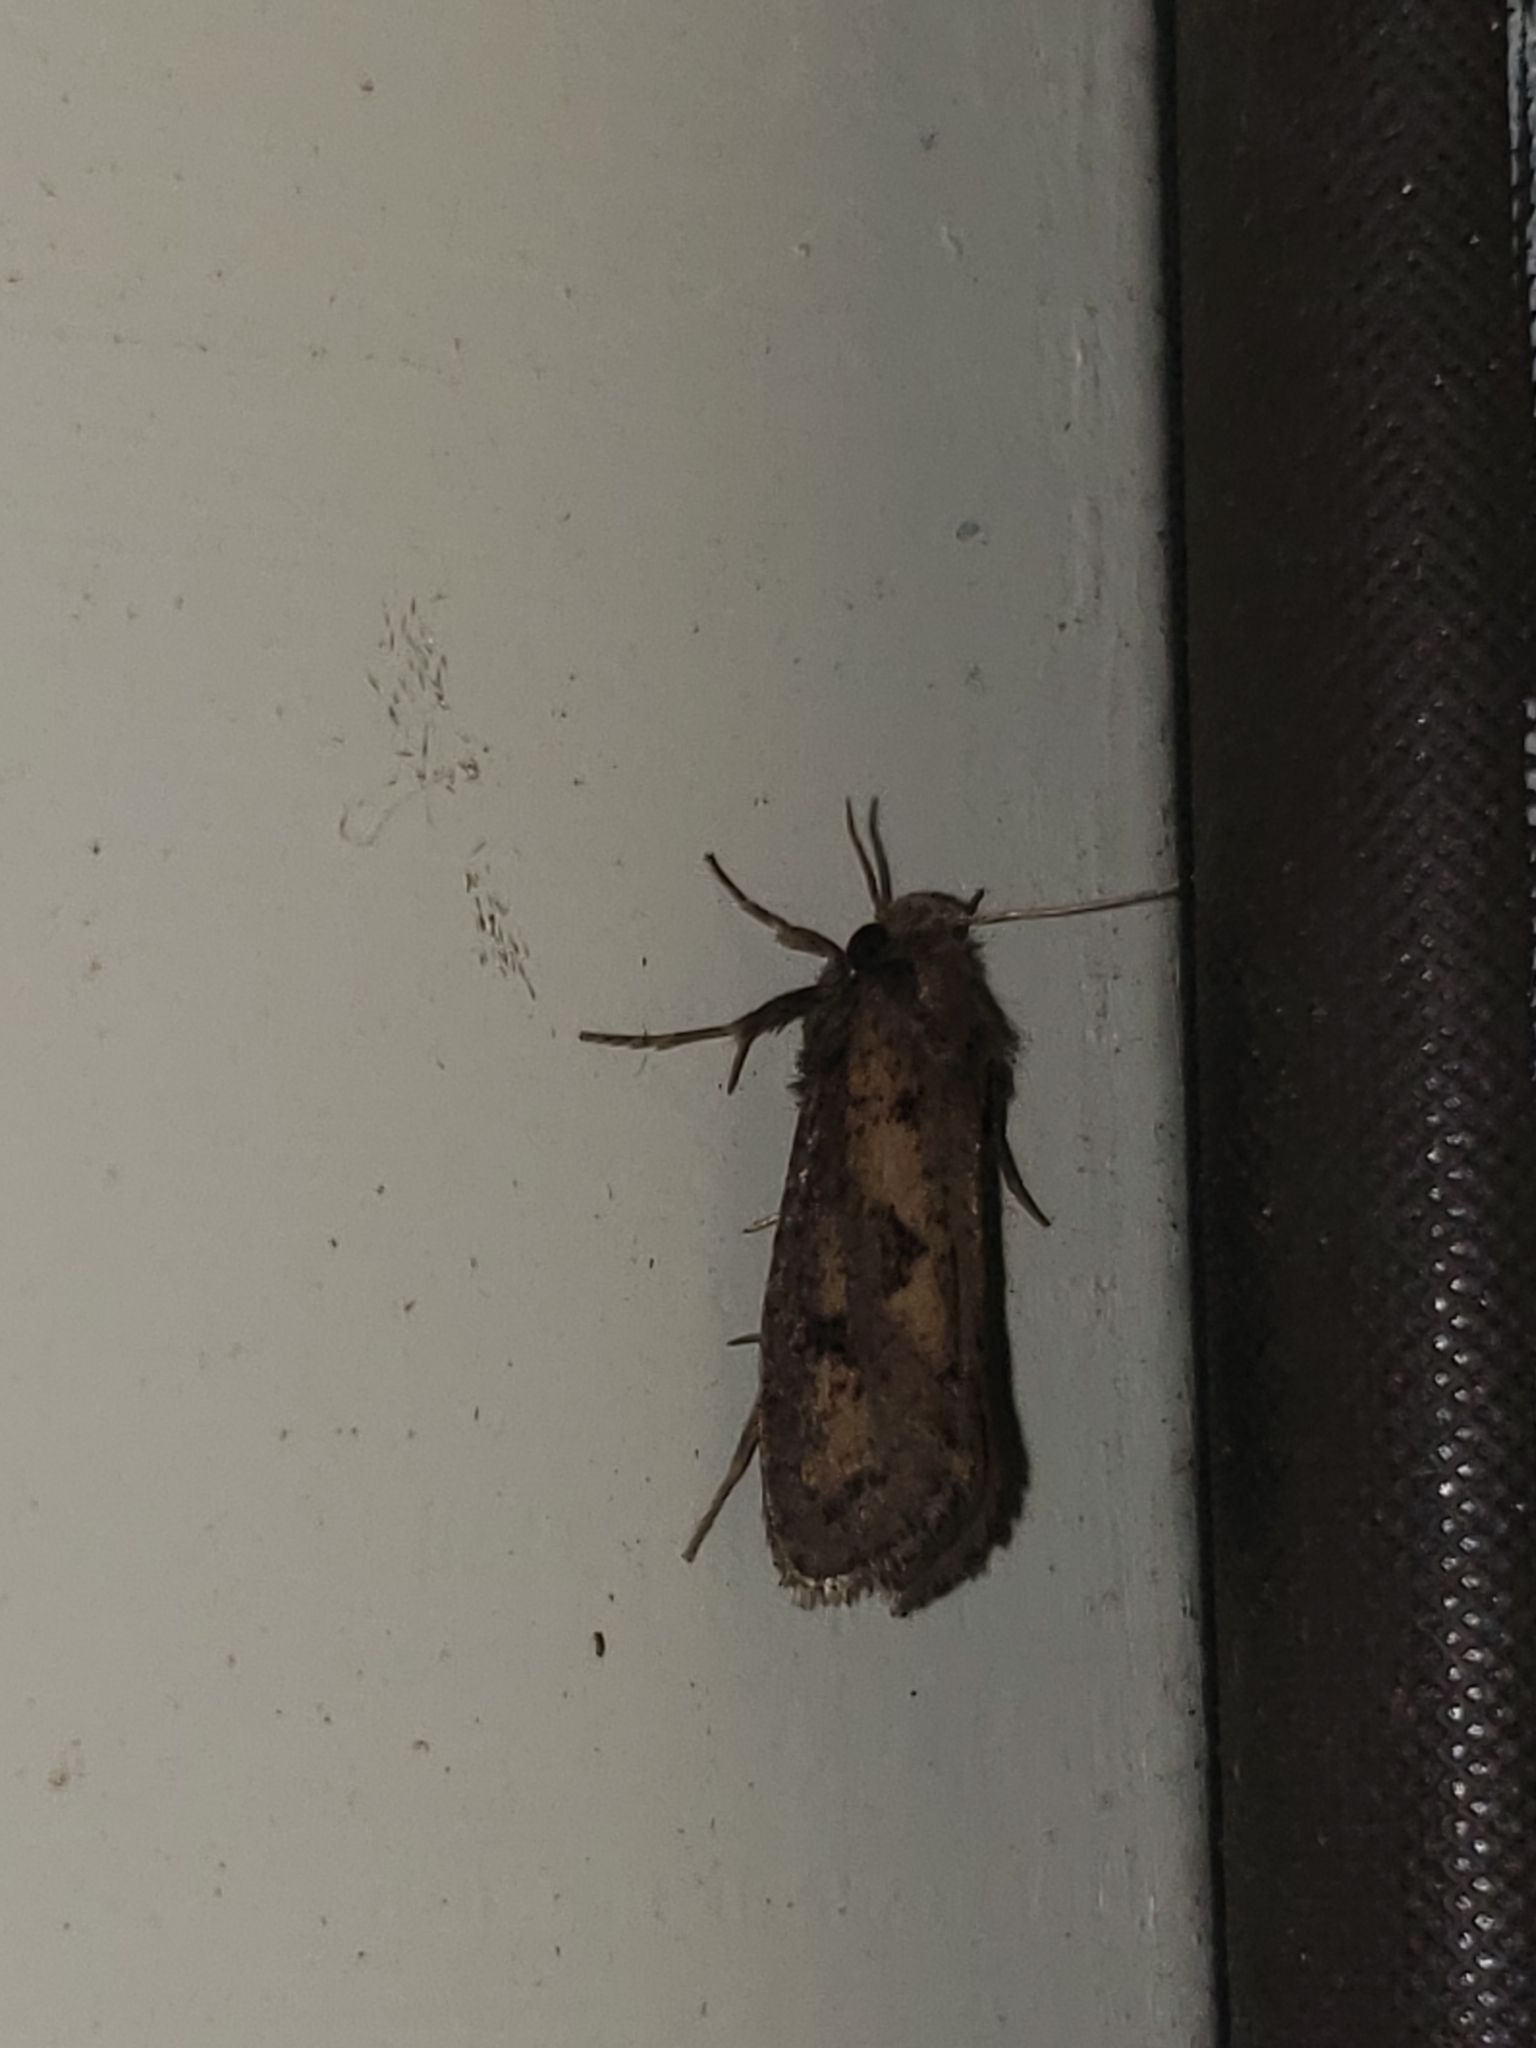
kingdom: Animalia
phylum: Arthropoda
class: Insecta
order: Lepidoptera
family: Tineidae
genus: Acrolophus
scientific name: Acrolophus popeanella
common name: Clemens' grass tubeworm moth
